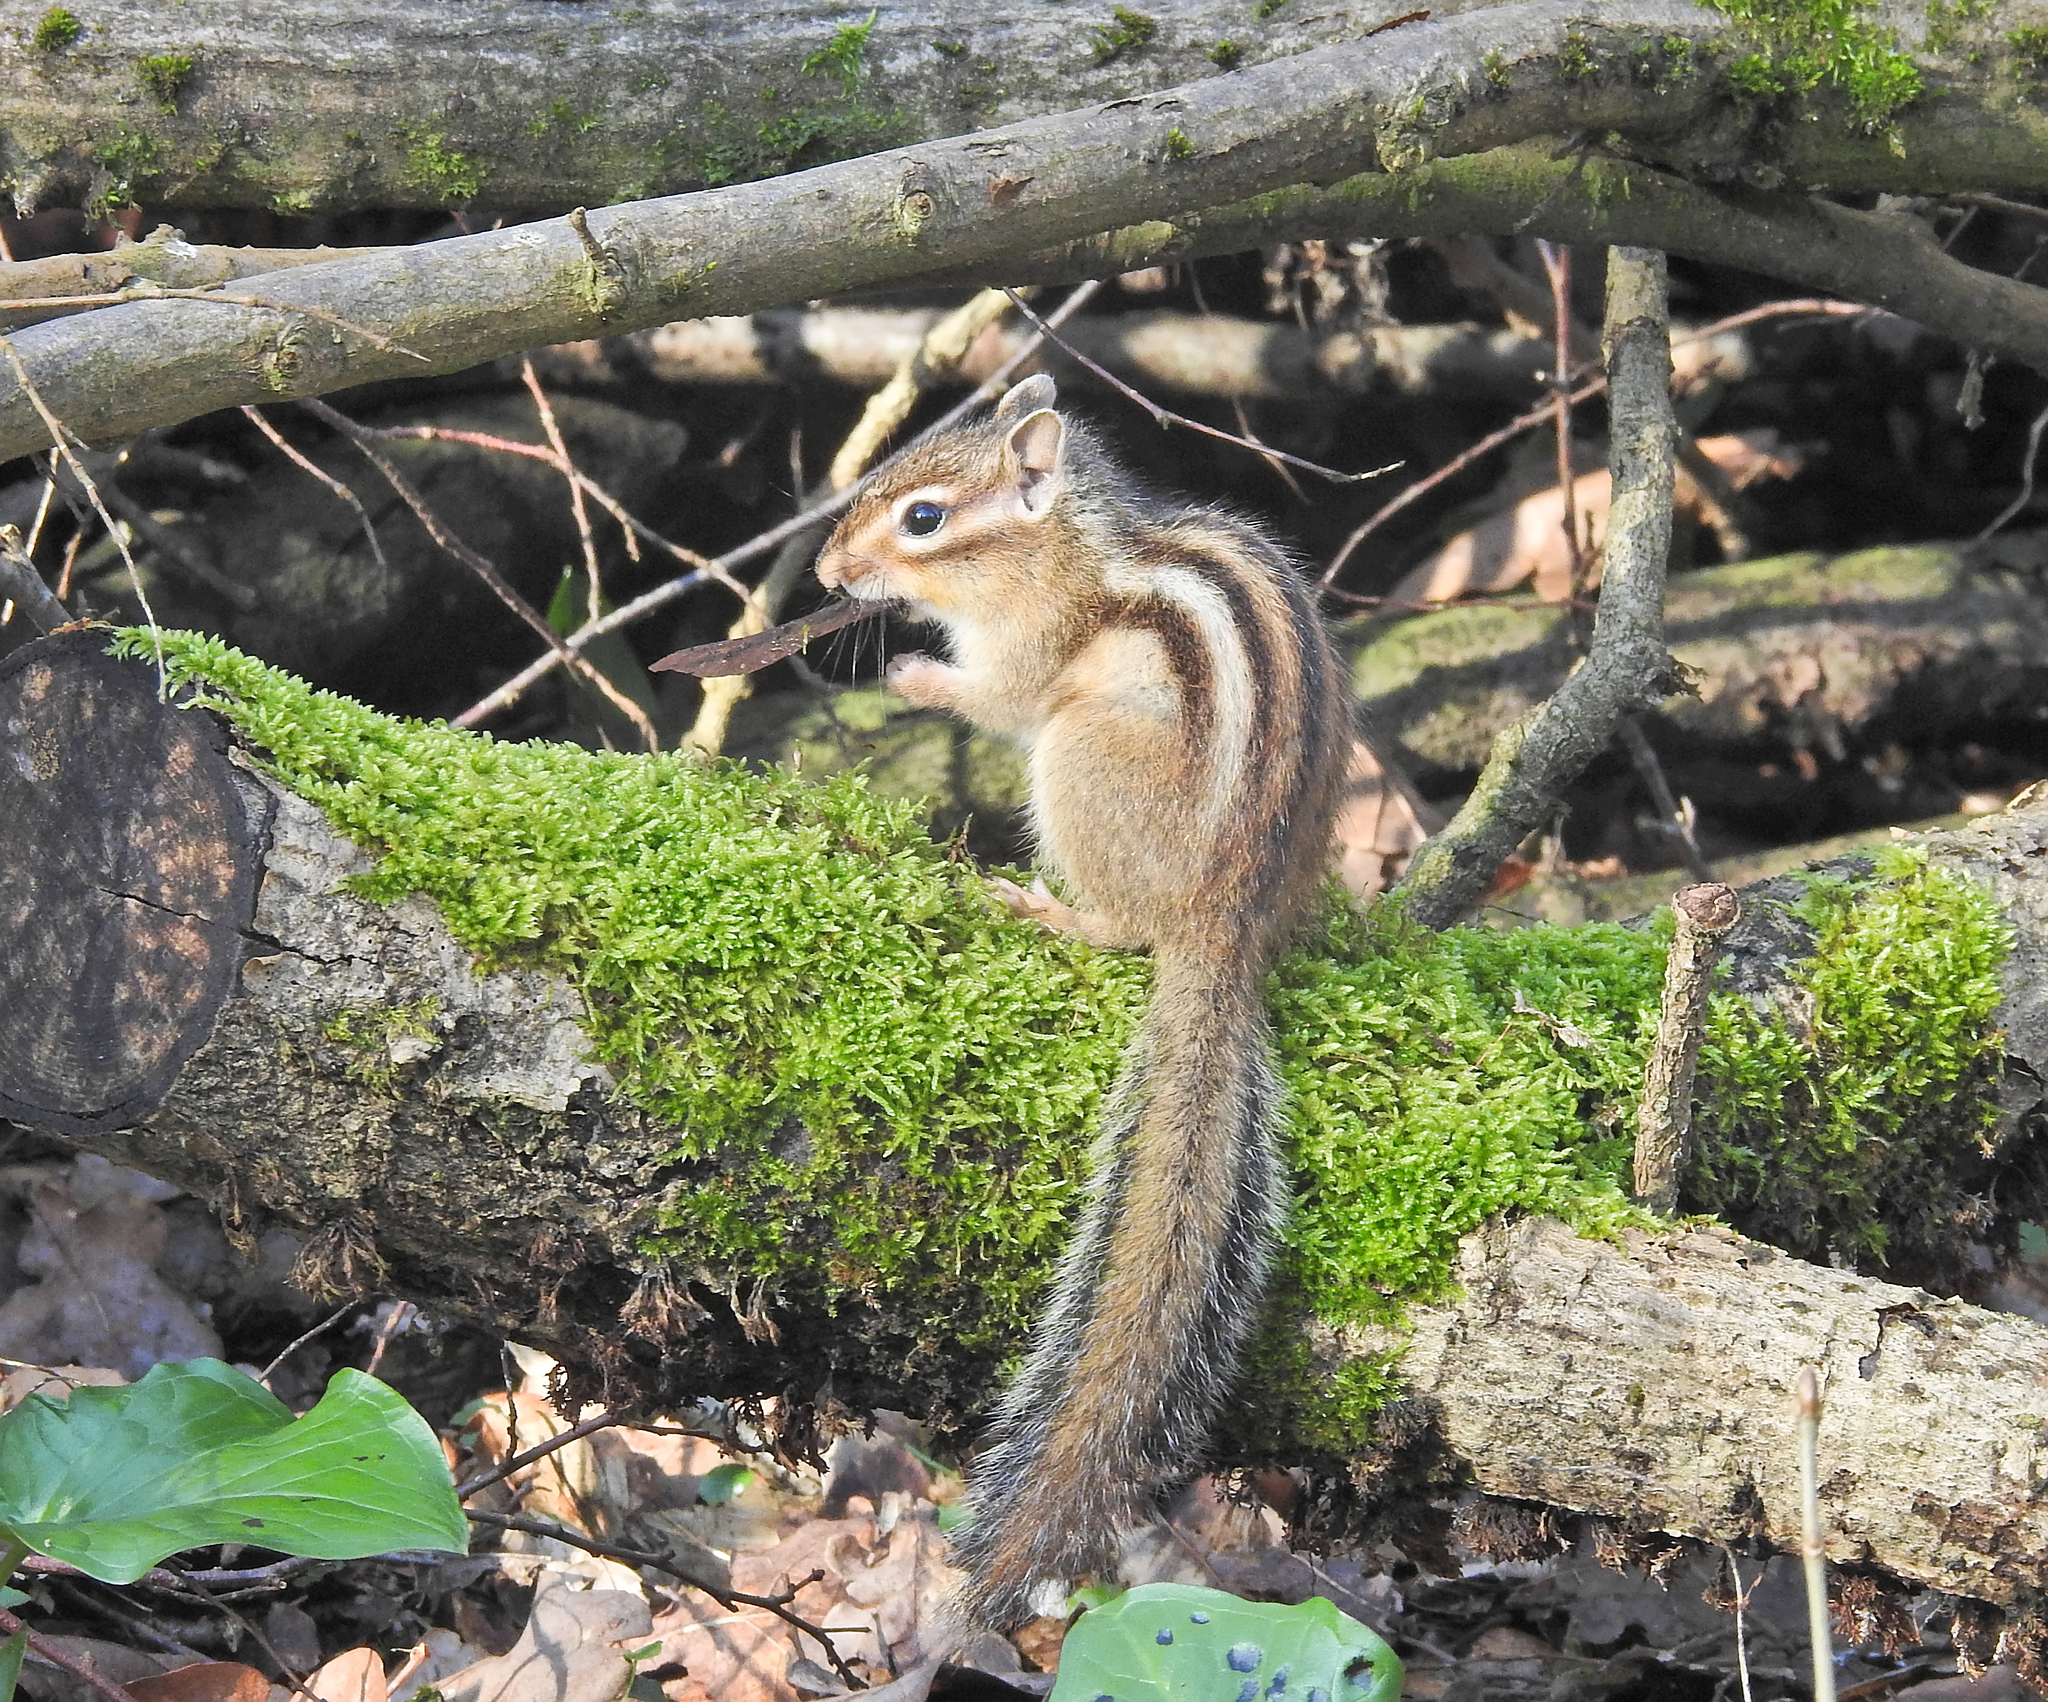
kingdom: Animalia
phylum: Chordata
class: Mammalia
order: Rodentia
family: Sciuridae
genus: Tamias
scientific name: Tamias sibiricus
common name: Siberian chipmunk
